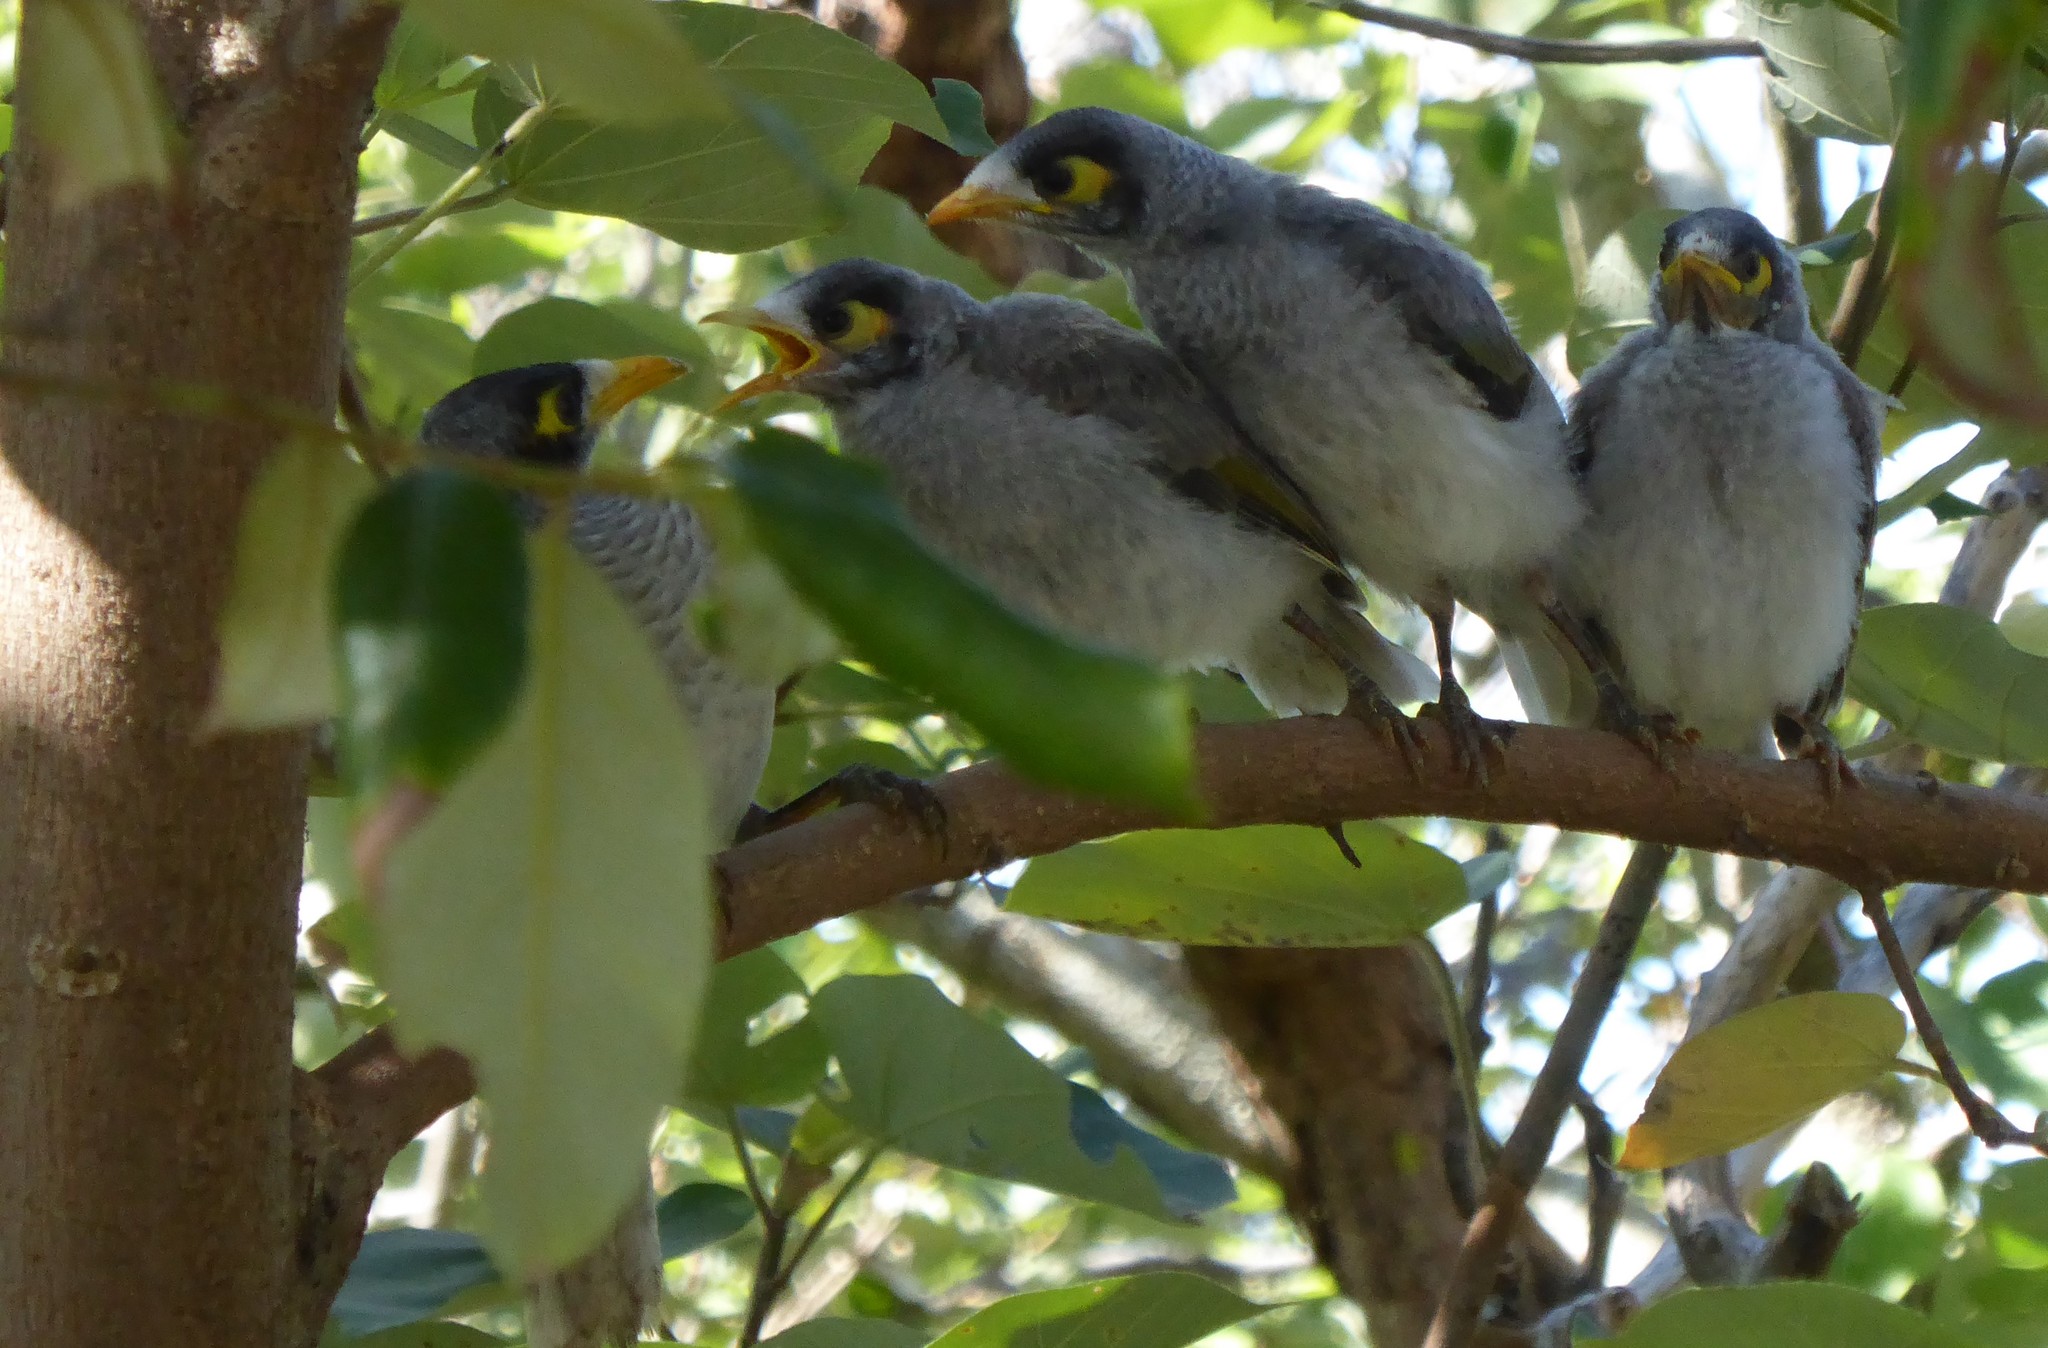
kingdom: Animalia
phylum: Chordata
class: Aves
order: Passeriformes
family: Meliphagidae
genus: Manorina
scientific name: Manorina melanocephala
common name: Noisy miner
